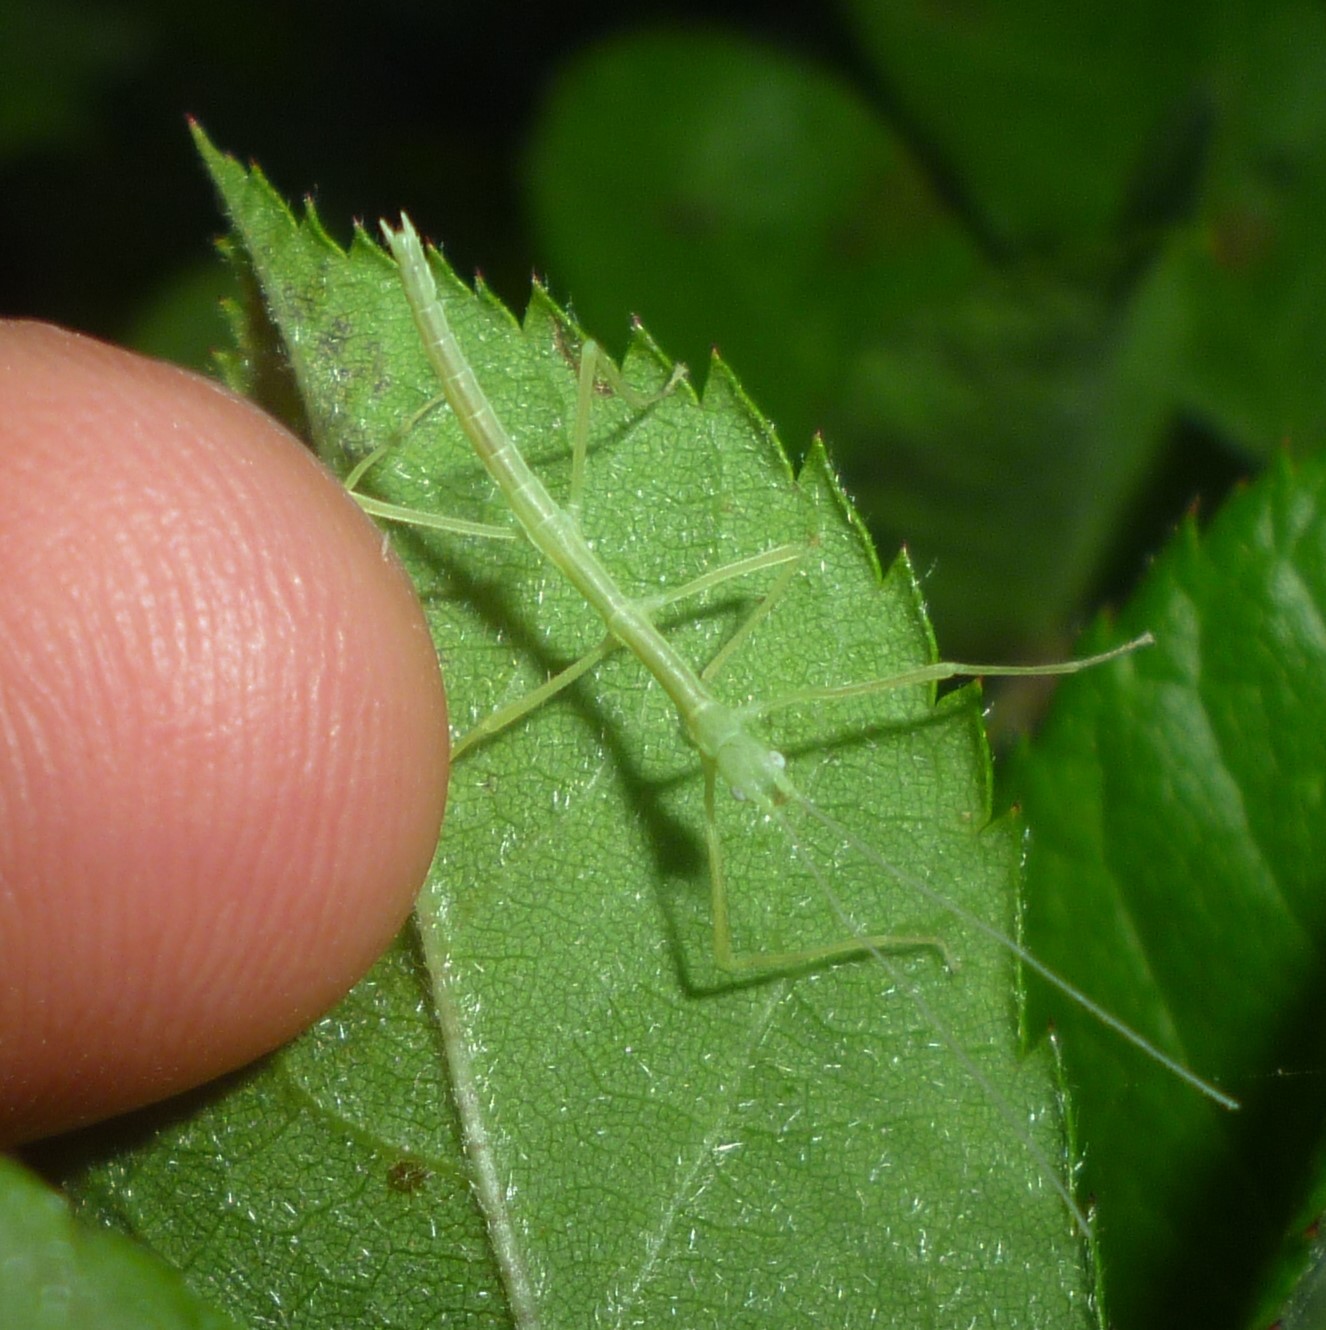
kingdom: Animalia
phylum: Arthropoda
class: Insecta
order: Phasmida
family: Diapheromeridae
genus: Diapheromera
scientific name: Diapheromera femorata
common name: Common american walkingstick
